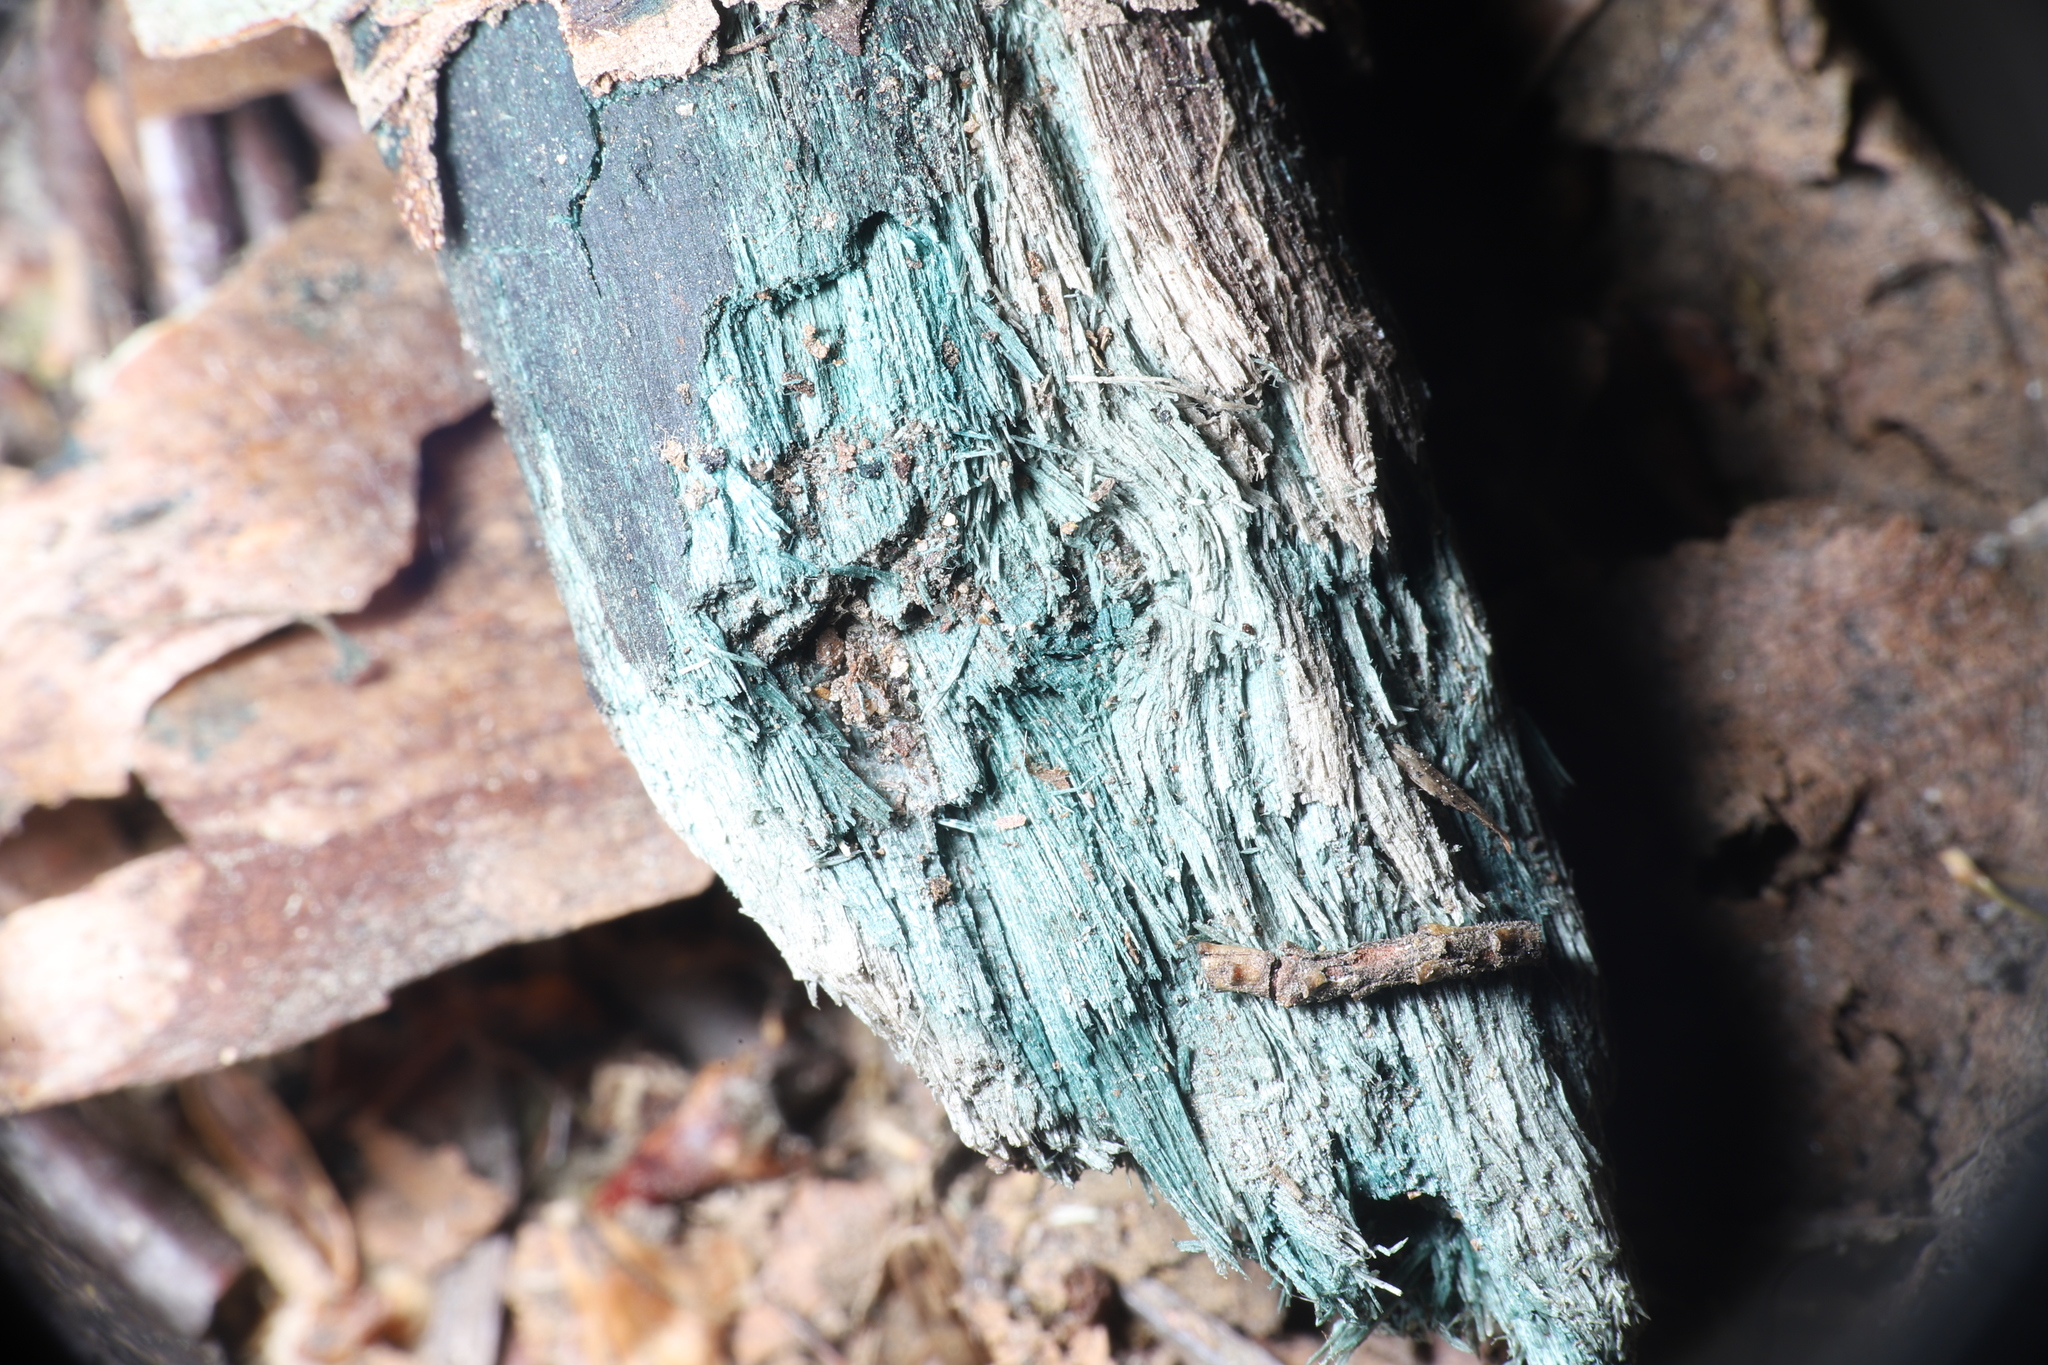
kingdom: Fungi
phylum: Ascomycota
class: Leotiomycetes
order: Helotiales
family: Chlorociboriaceae
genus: Chlorociboria
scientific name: Chlorociboria
